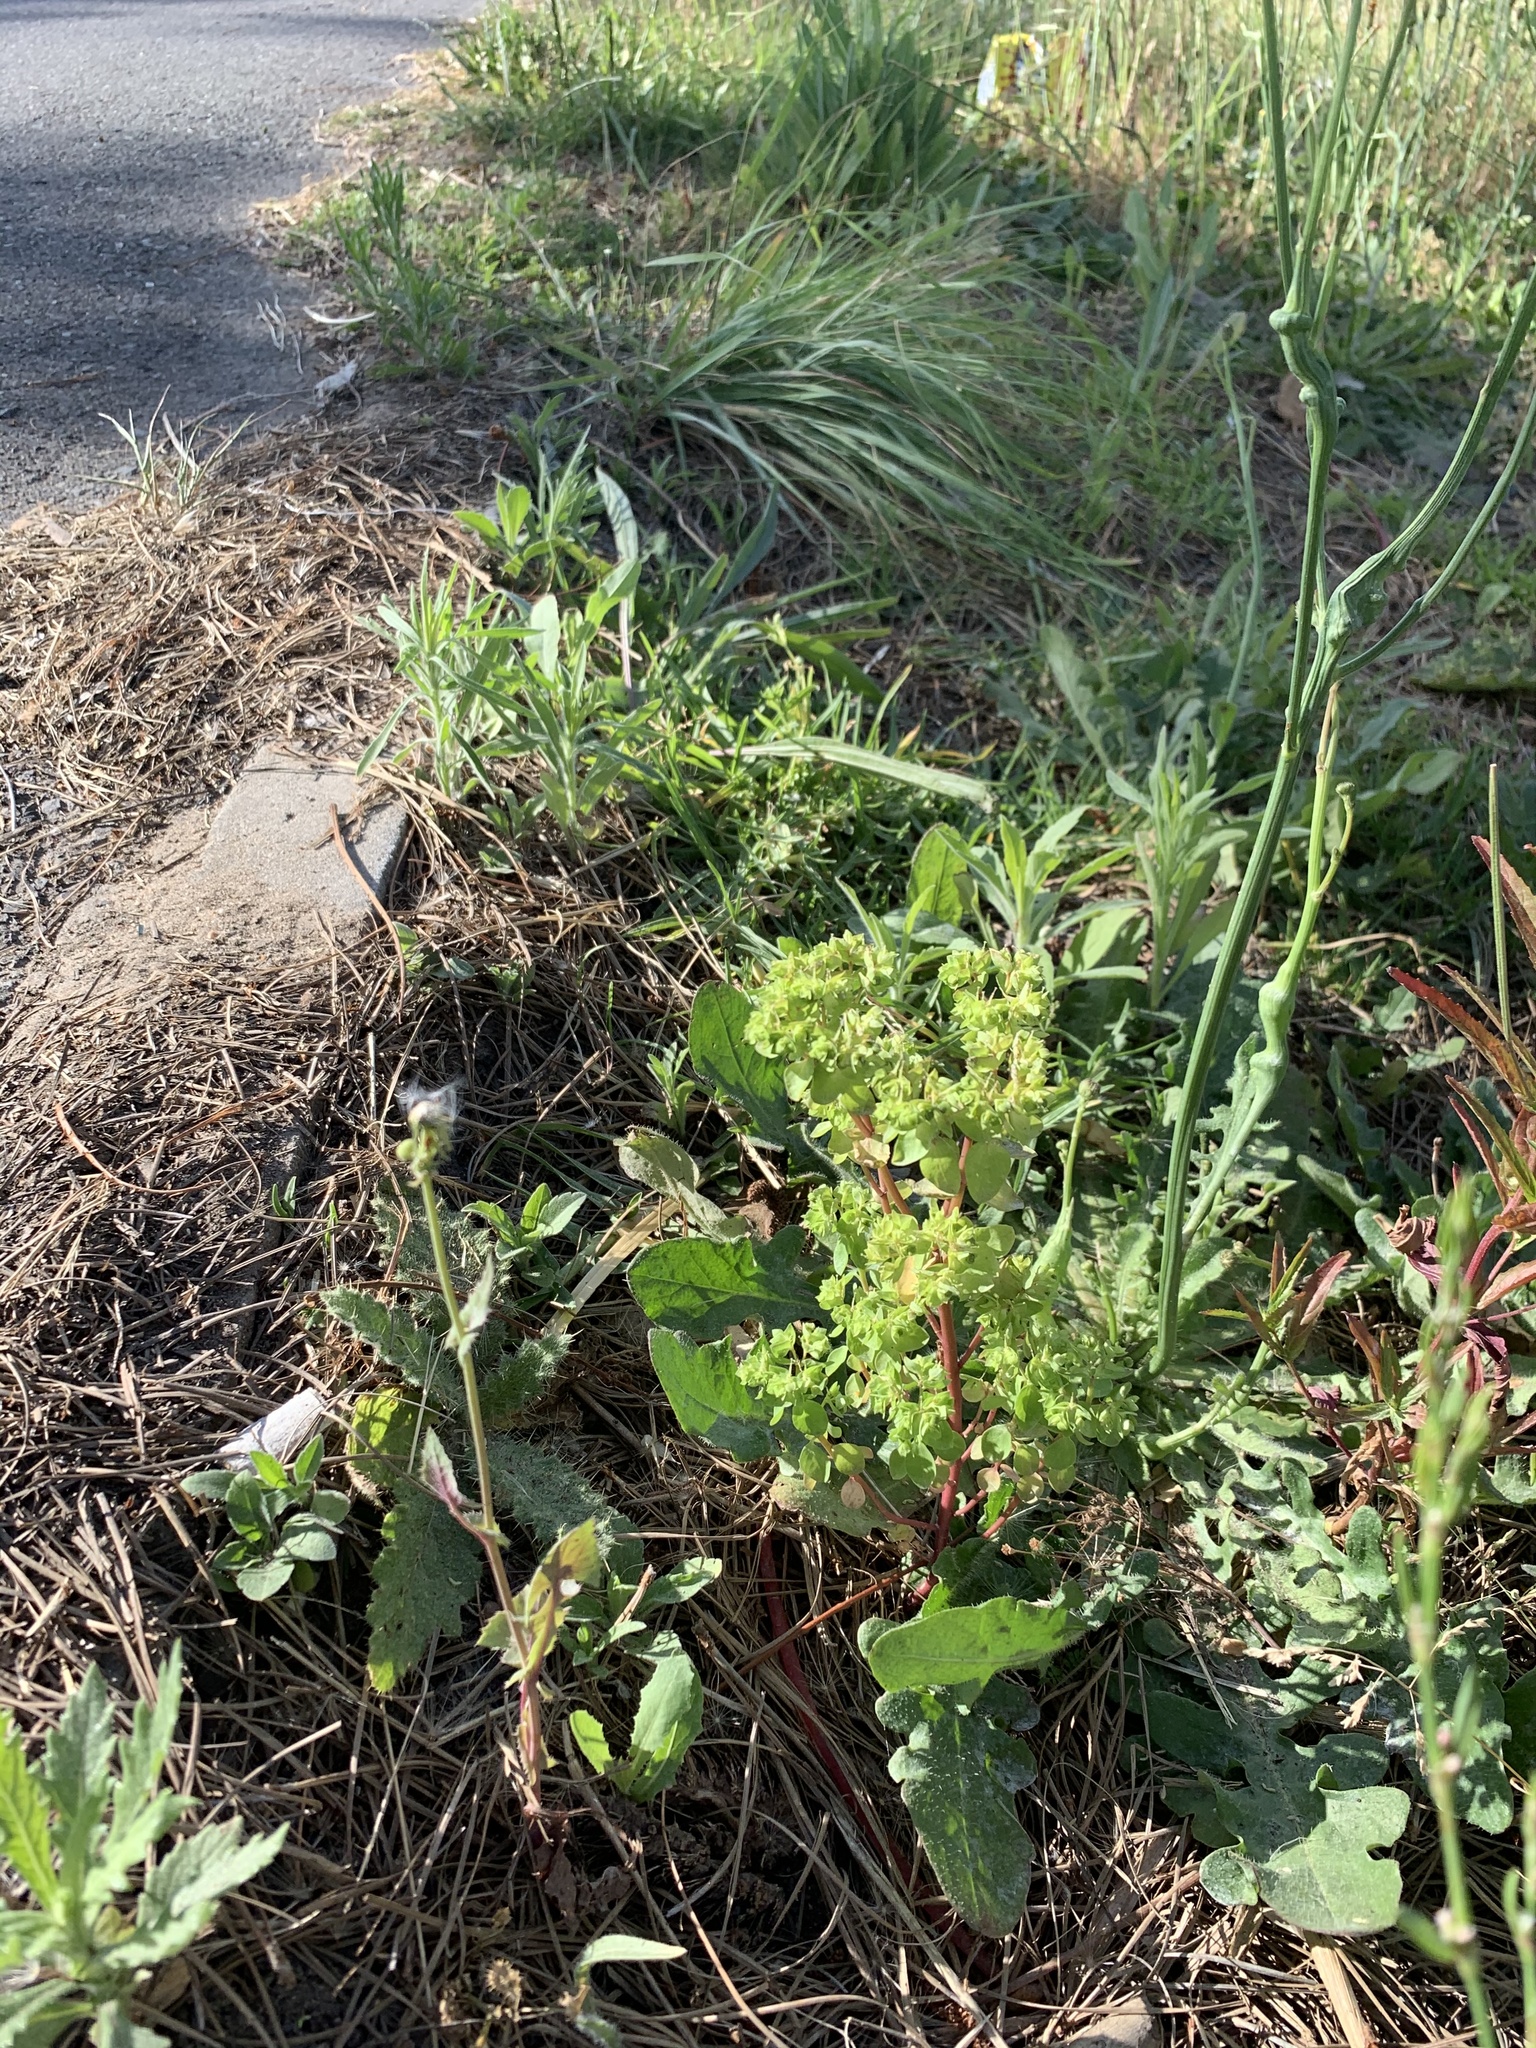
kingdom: Plantae
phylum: Tracheophyta
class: Magnoliopsida
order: Malpighiales
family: Euphorbiaceae
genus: Euphorbia
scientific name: Euphorbia peplus
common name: Petty spurge
